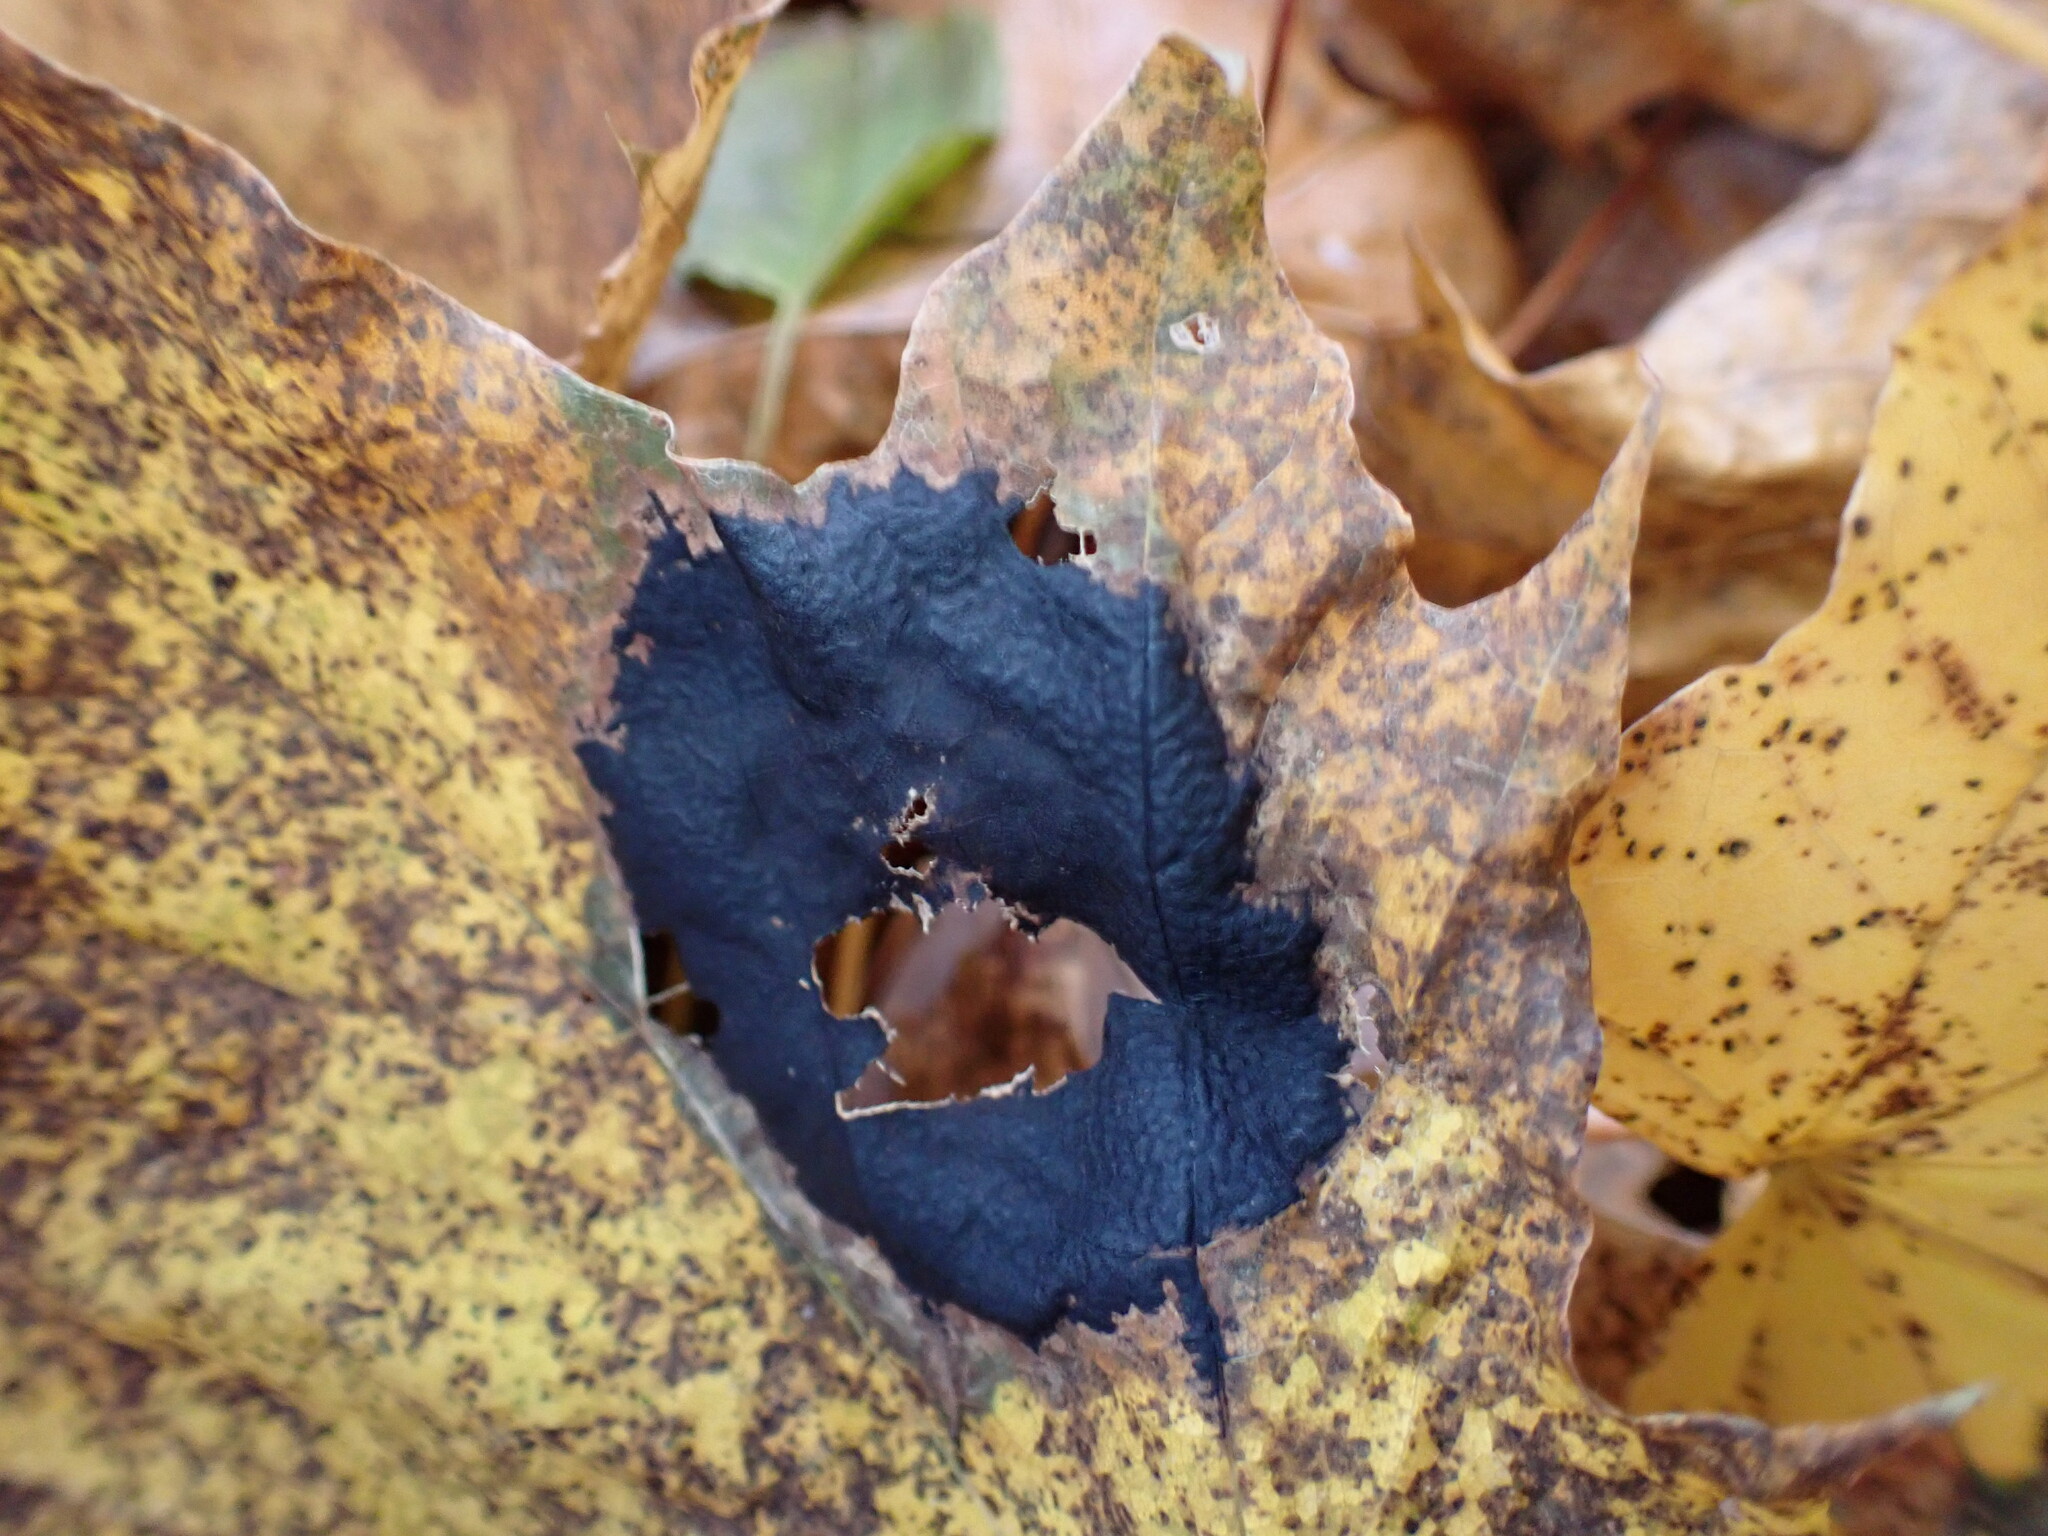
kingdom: Fungi
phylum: Ascomycota
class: Leotiomycetes
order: Rhytismatales
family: Rhytismataceae
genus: Rhytisma
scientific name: Rhytisma americanum
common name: American tar spot
